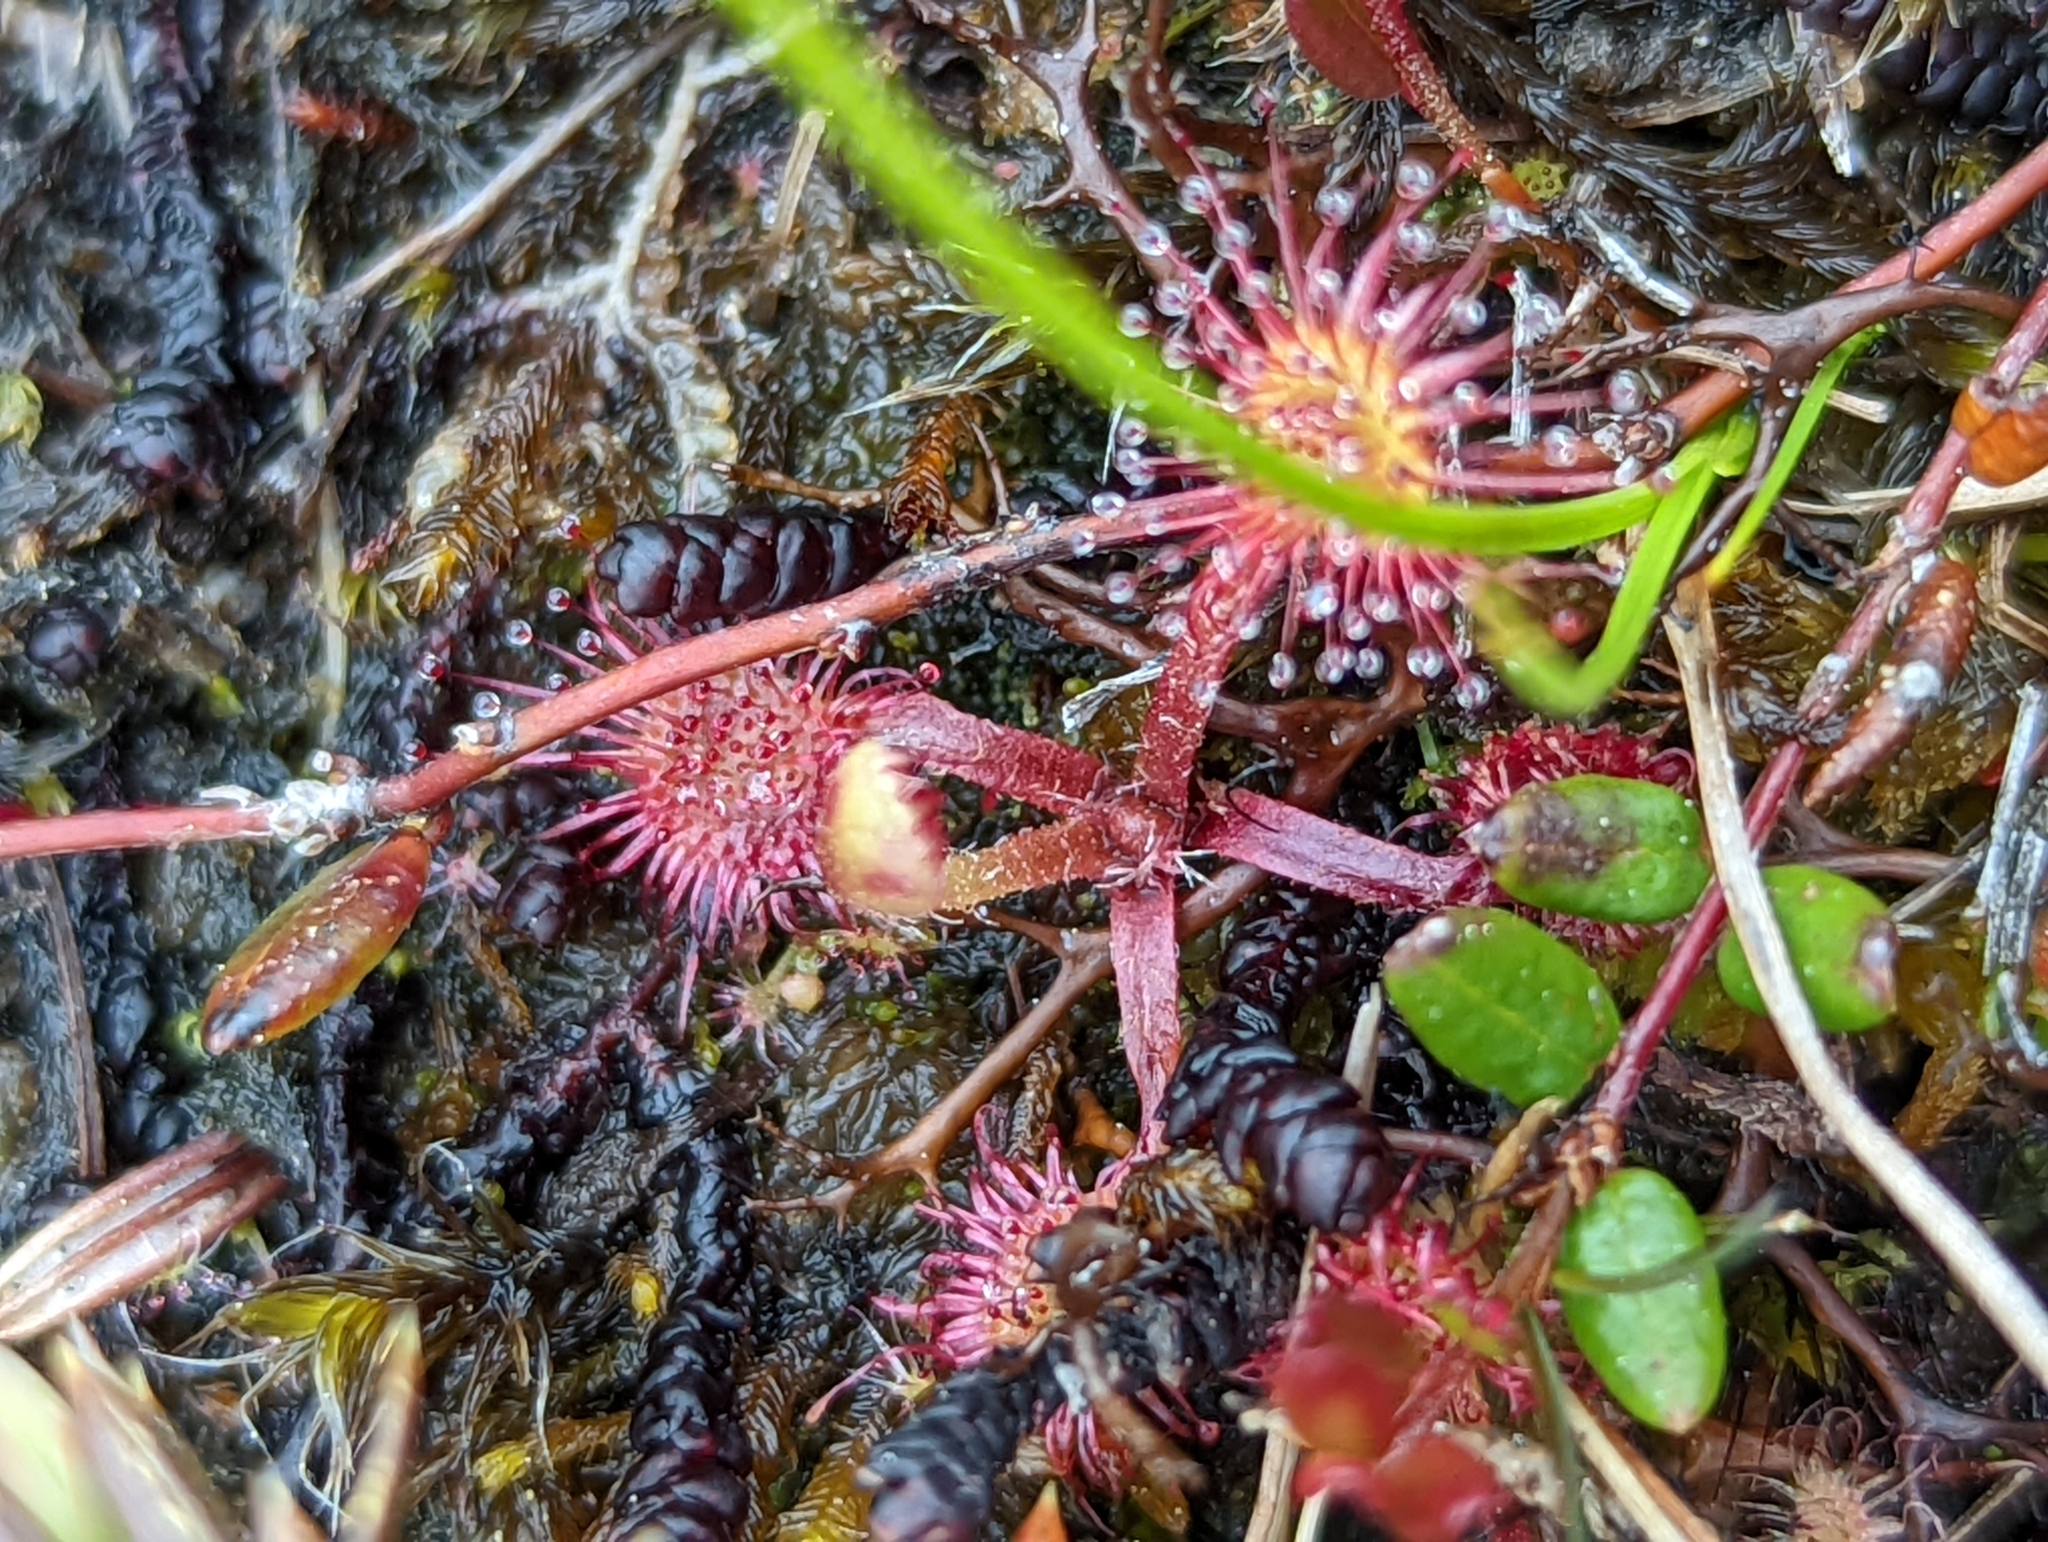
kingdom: Plantae
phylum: Tracheophyta
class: Magnoliopsida
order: Caryophyllales
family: Droseraceae
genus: Drosera
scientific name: Drosera rotundifolia
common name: Round-leaved sundew
